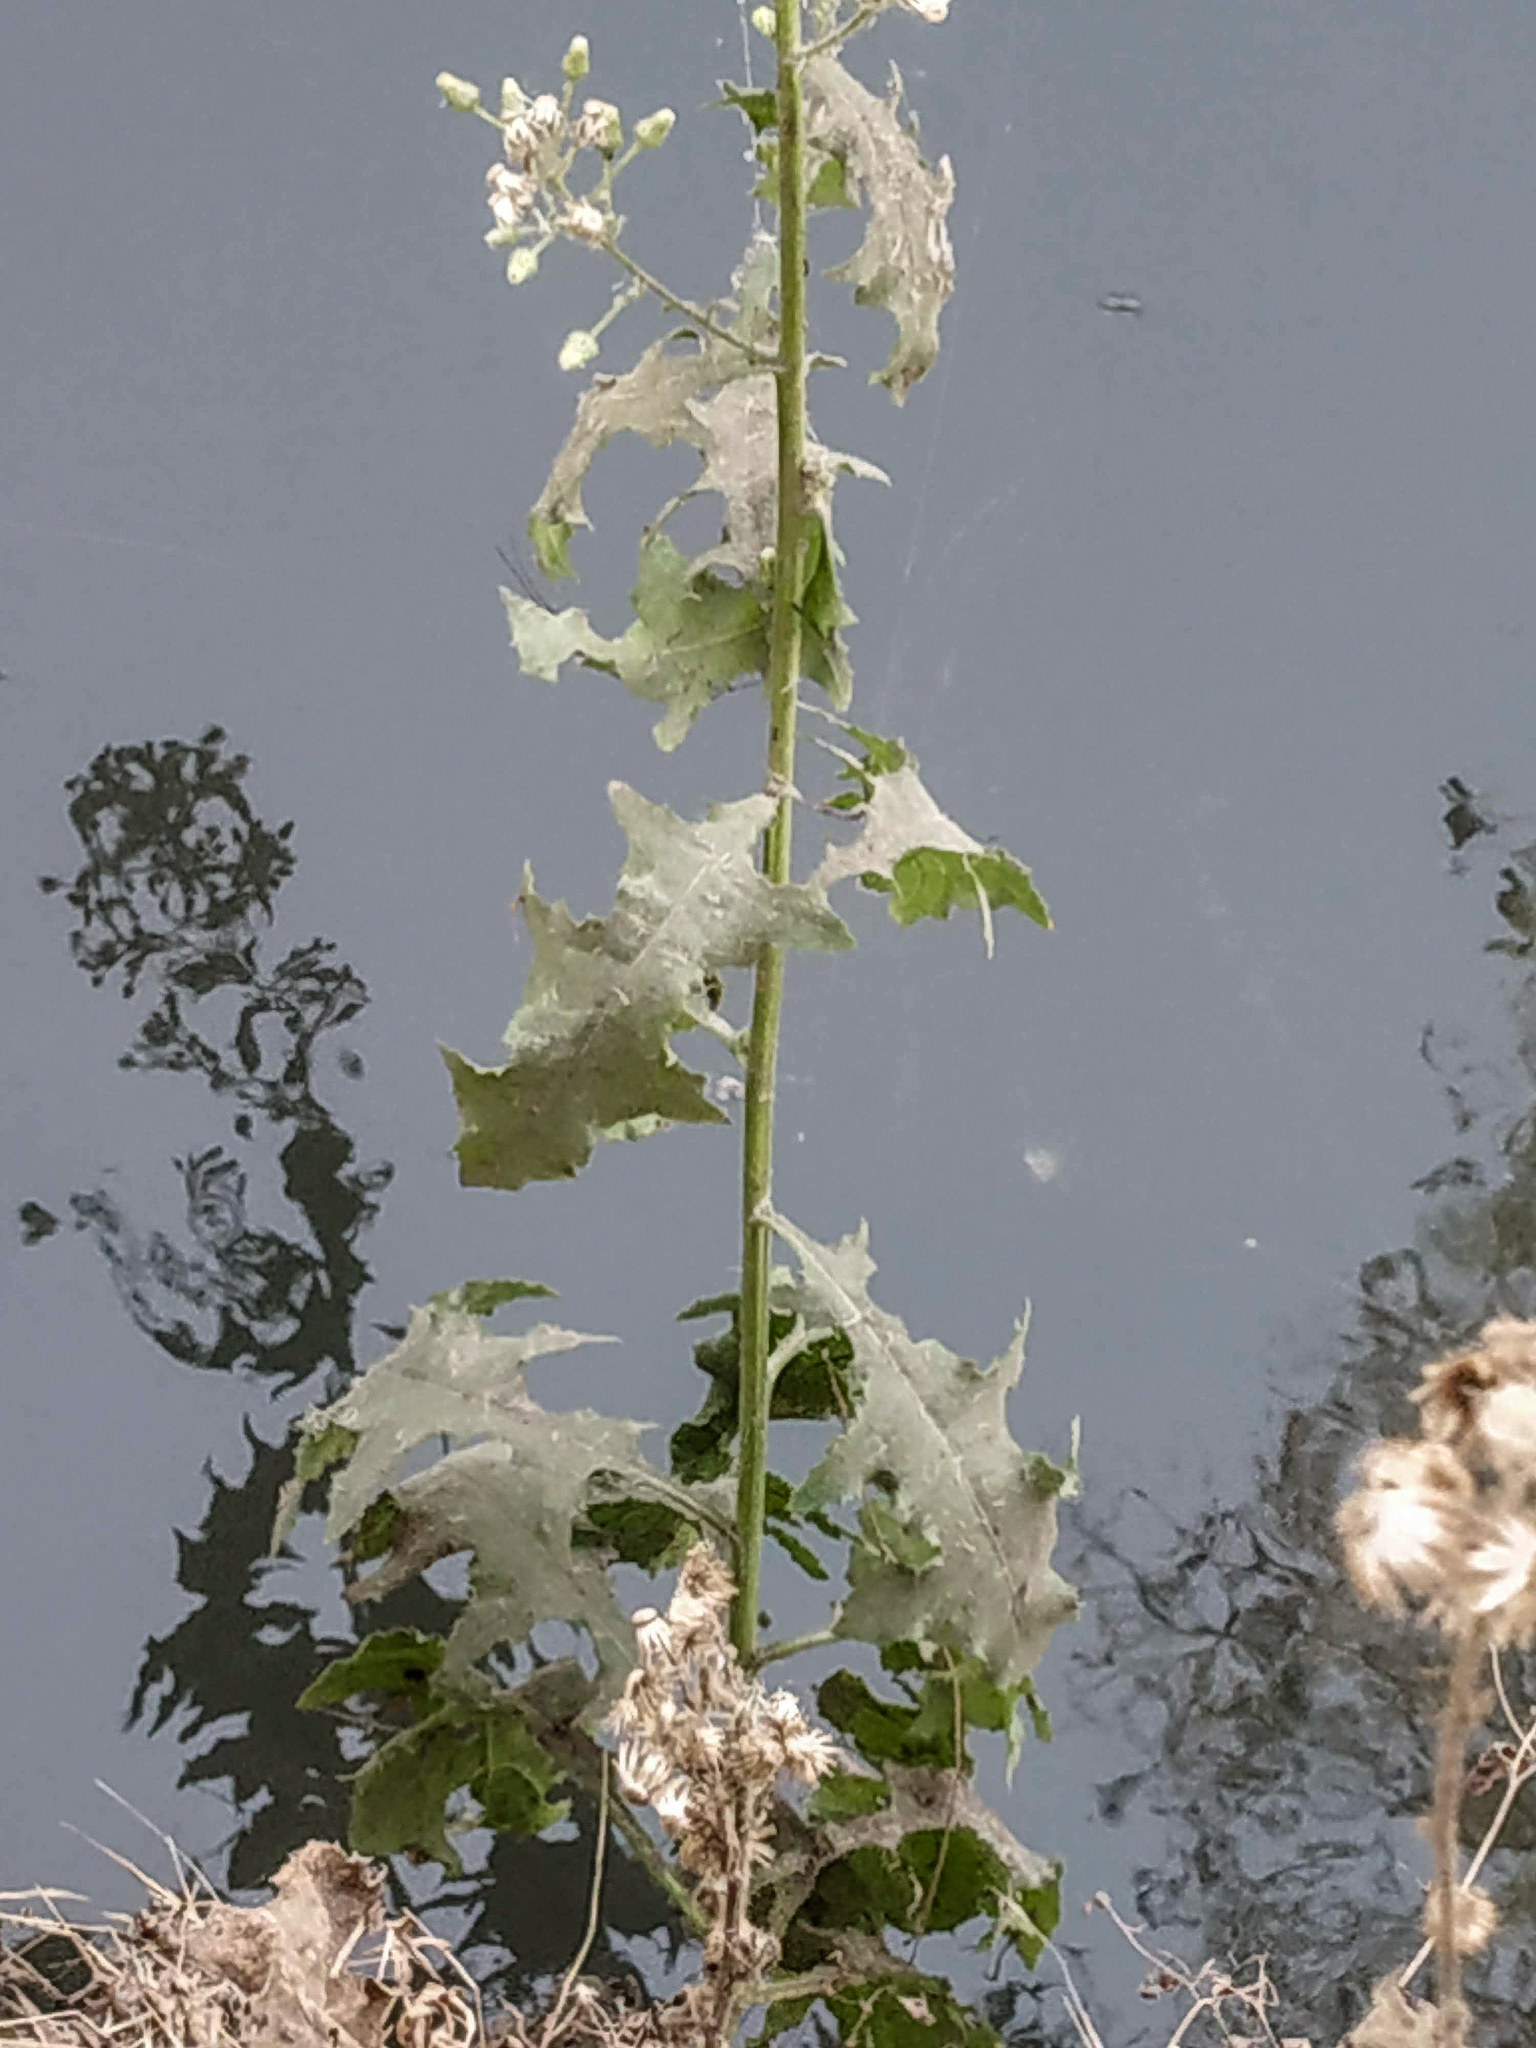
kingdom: Plantae
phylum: Tracheophyta
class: Magnoliopsida
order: Asterales
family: Asteraceae
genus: Blumea
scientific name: Blumea sinuata
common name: Cutleaf false oxtongue
